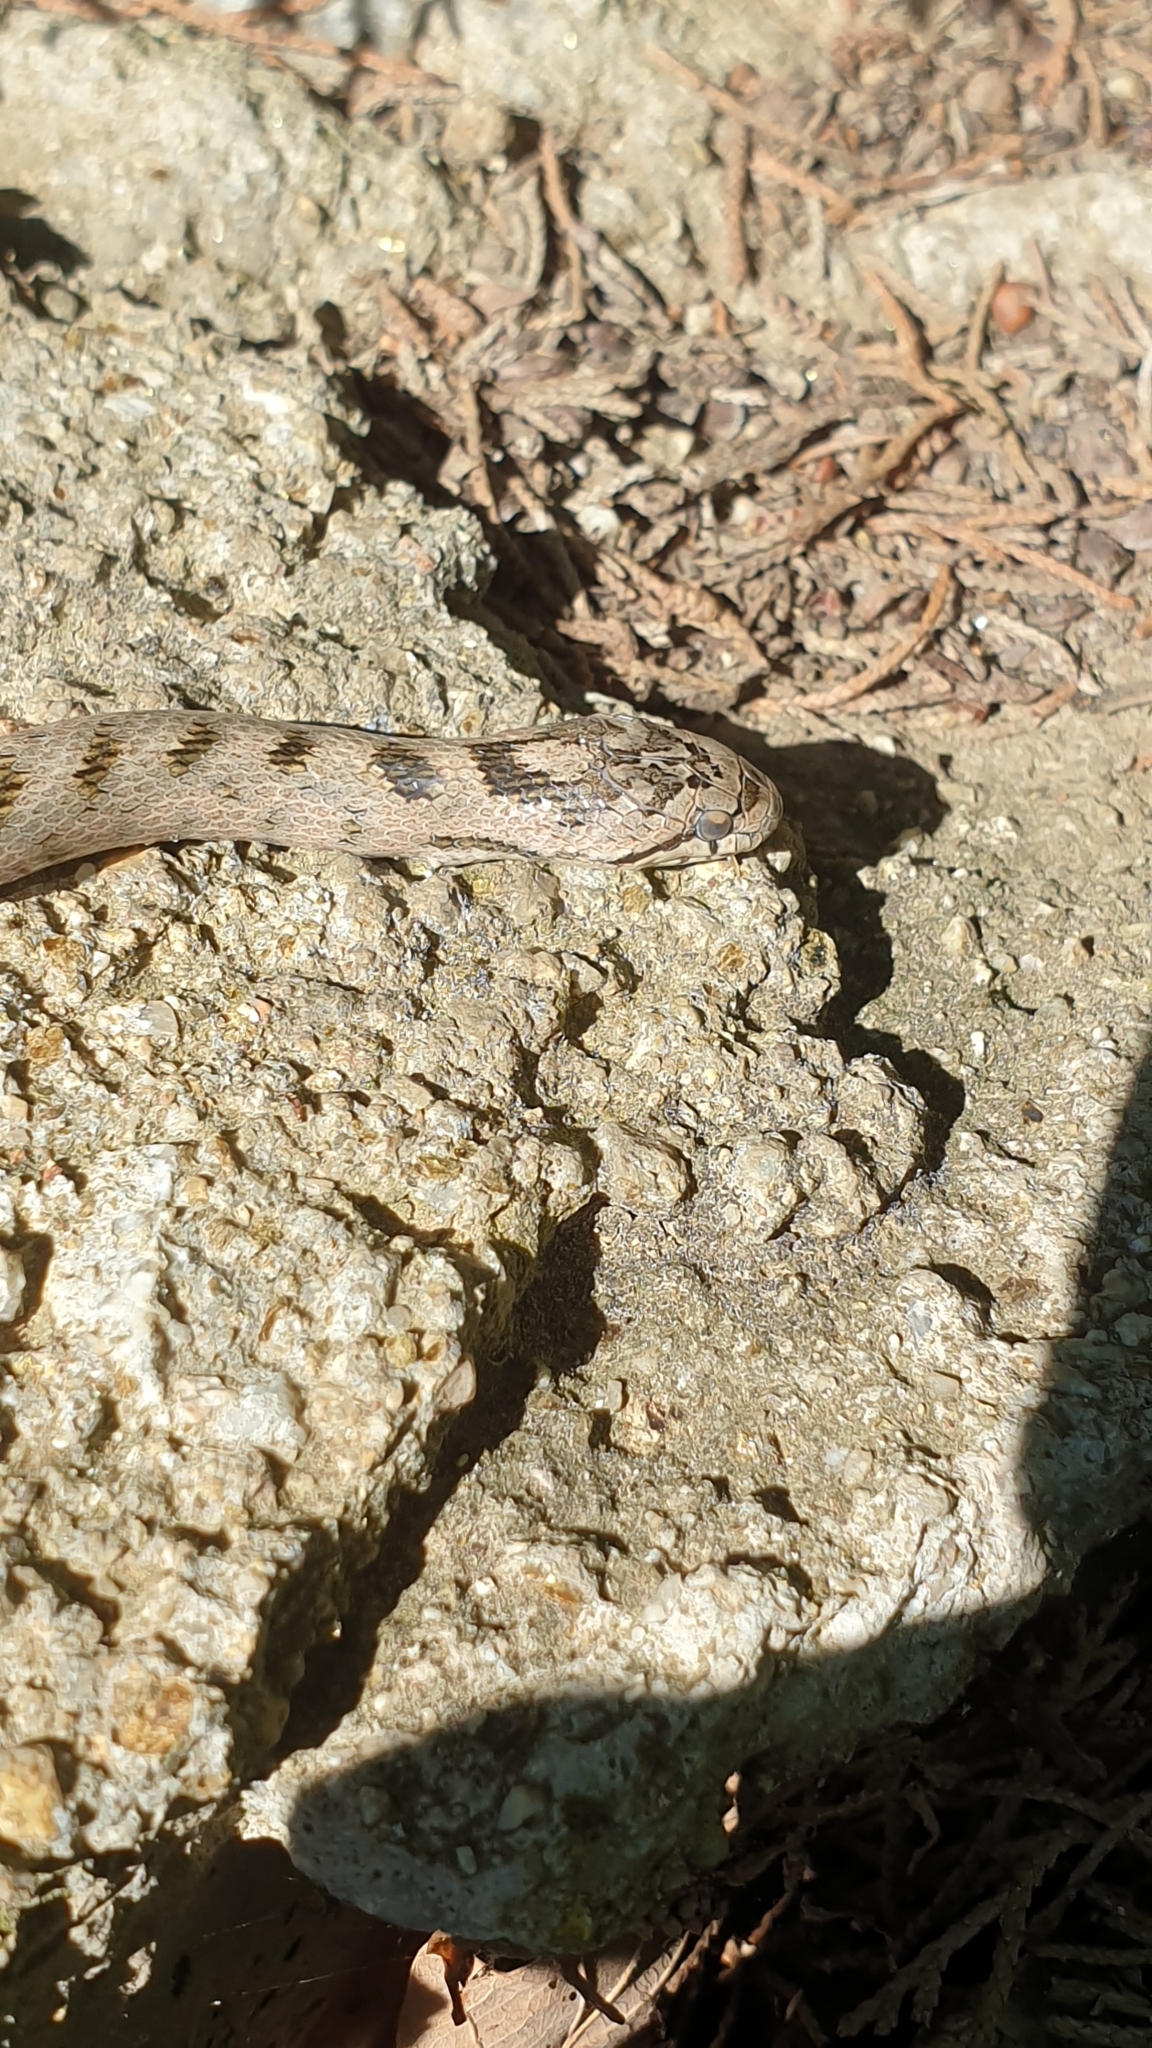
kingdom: Animalia
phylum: Chordata
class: Squamata
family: Colubridae
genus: Coronella
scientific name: Coronella girondica
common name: Southern smooth snake
